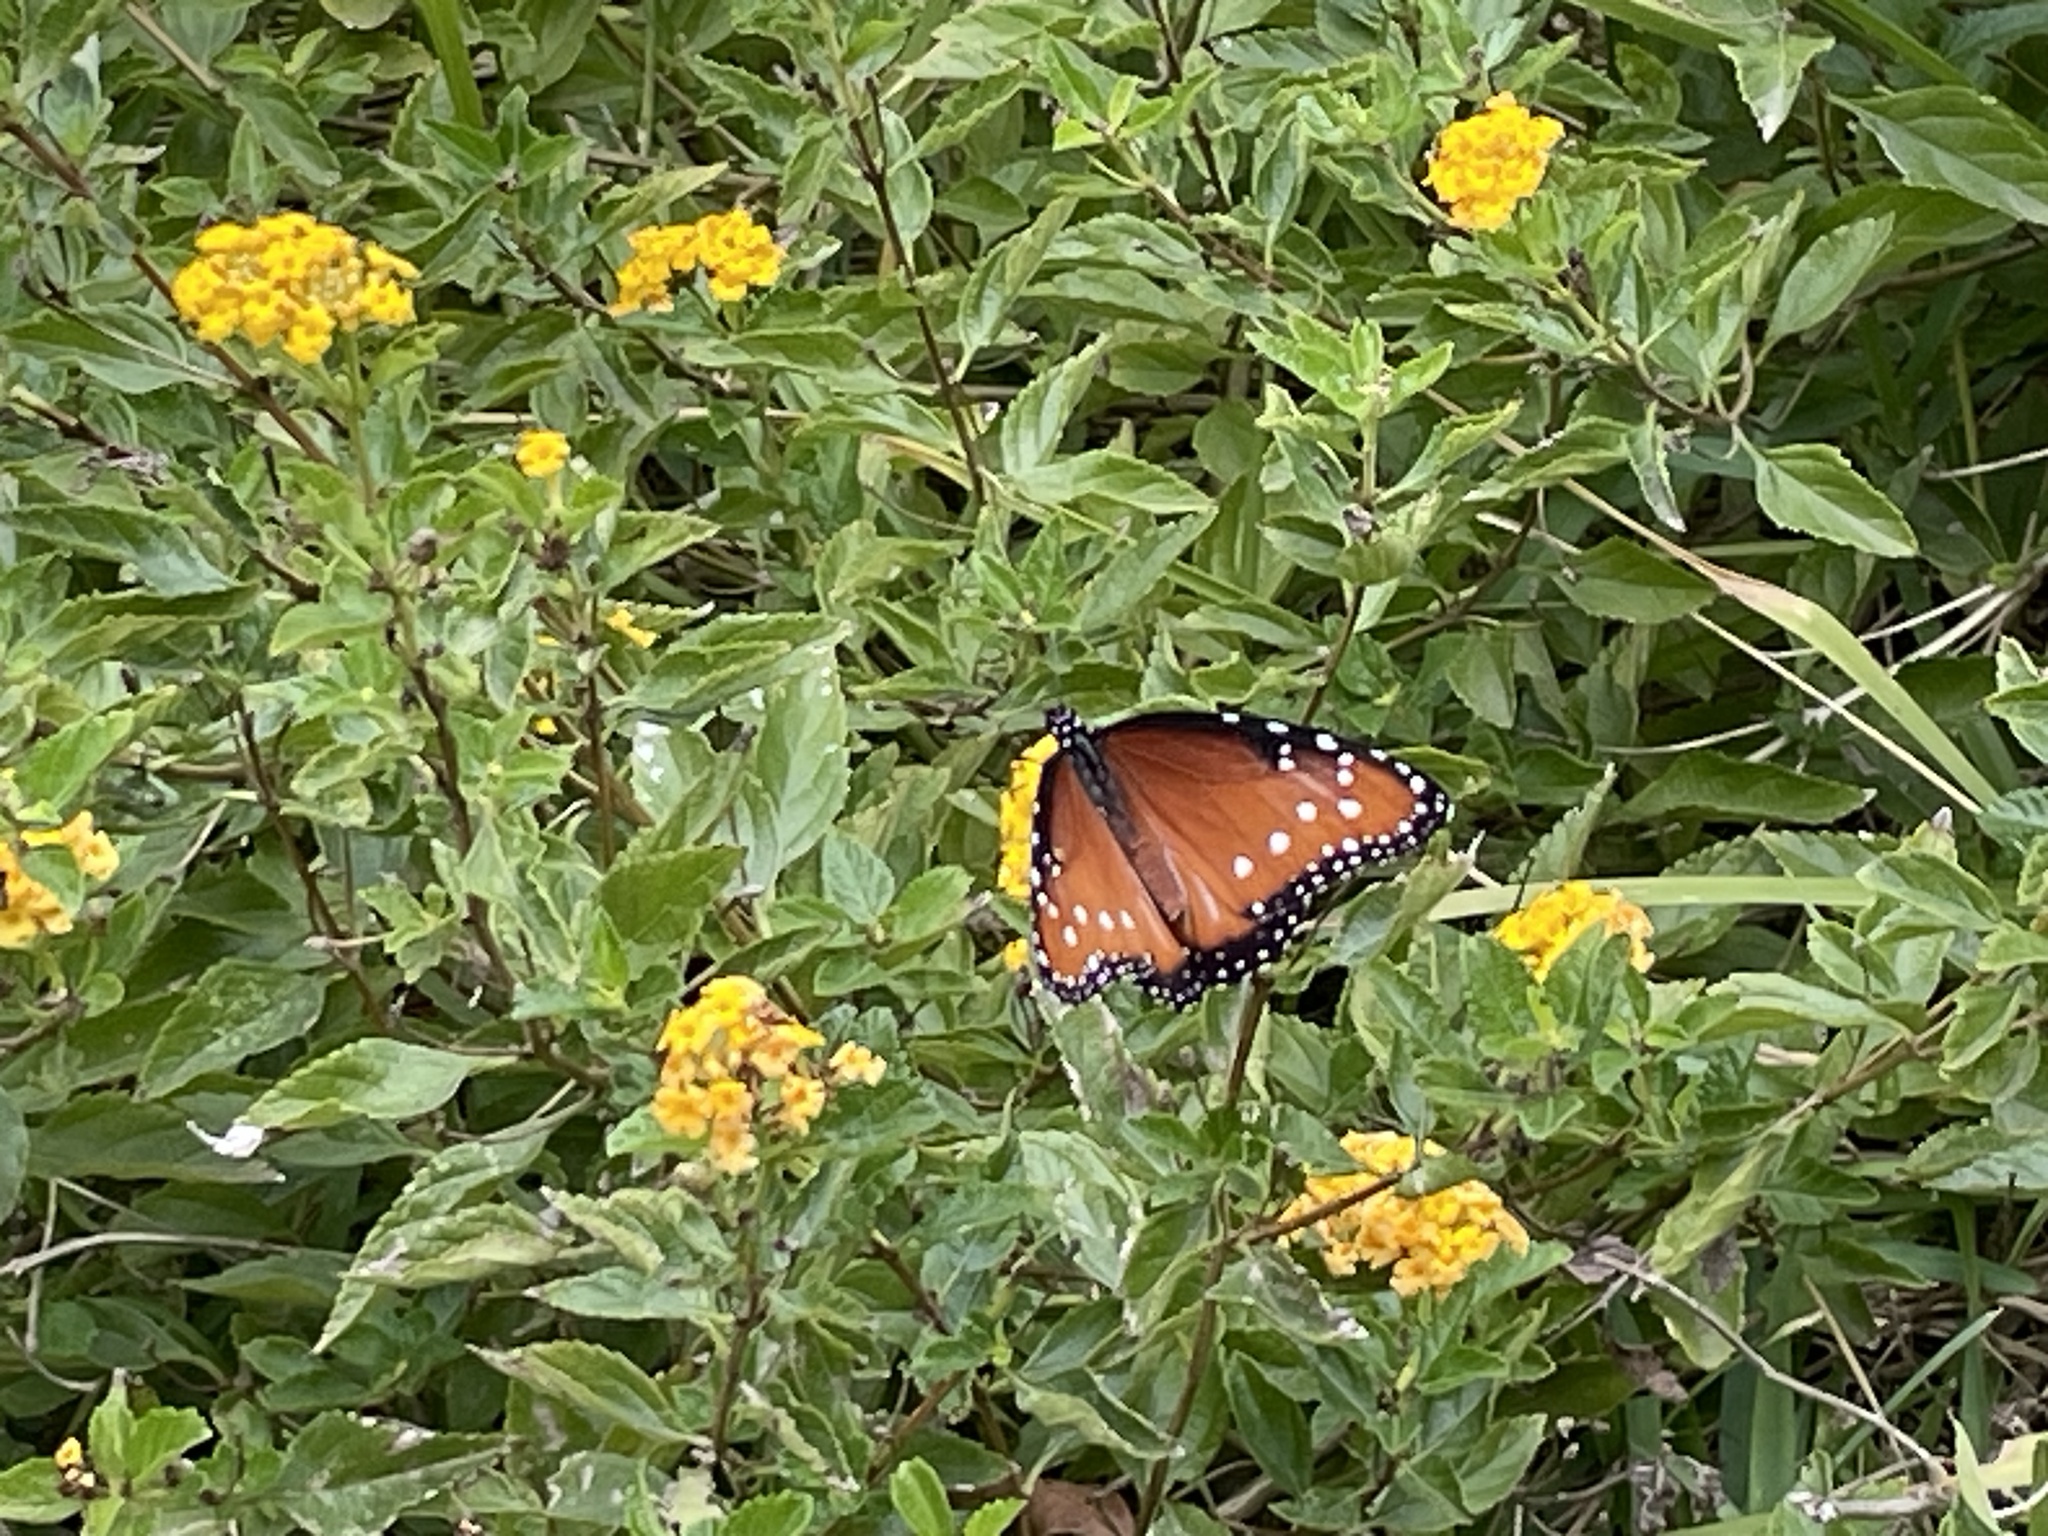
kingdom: Animalia
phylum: Arthropoda
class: Insecta
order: Lepidoptera
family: Nymphalidae
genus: Danaus
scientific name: Danaus gilippus
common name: Queen
